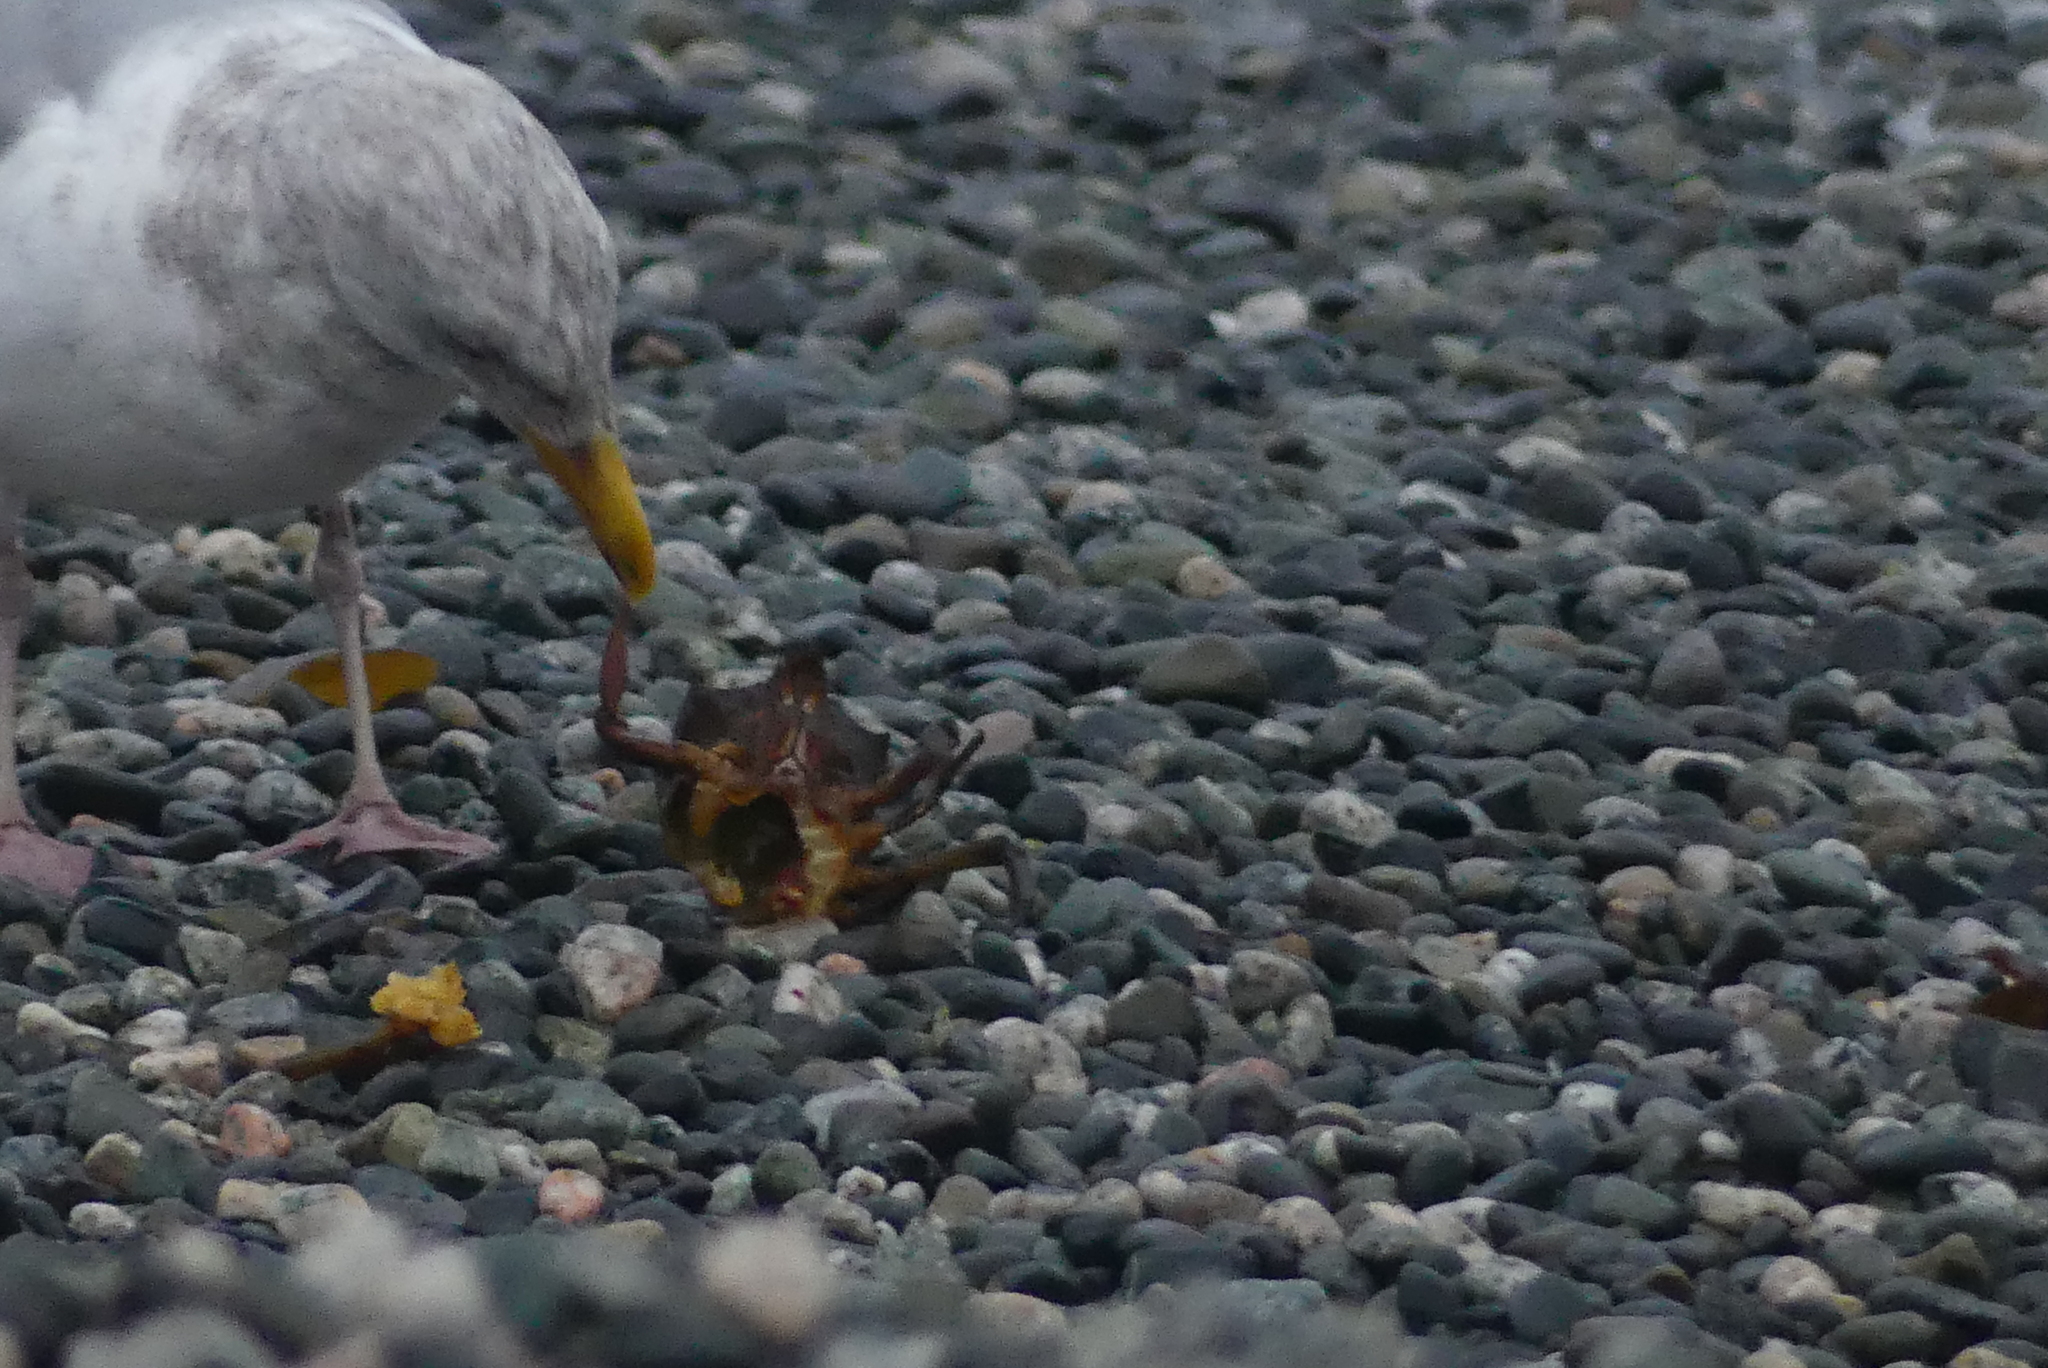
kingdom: Animalia
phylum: Arthropoda
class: Malacostraca
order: Decapoda
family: Epialtidae
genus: Pugettia
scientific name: Pugettia producta
